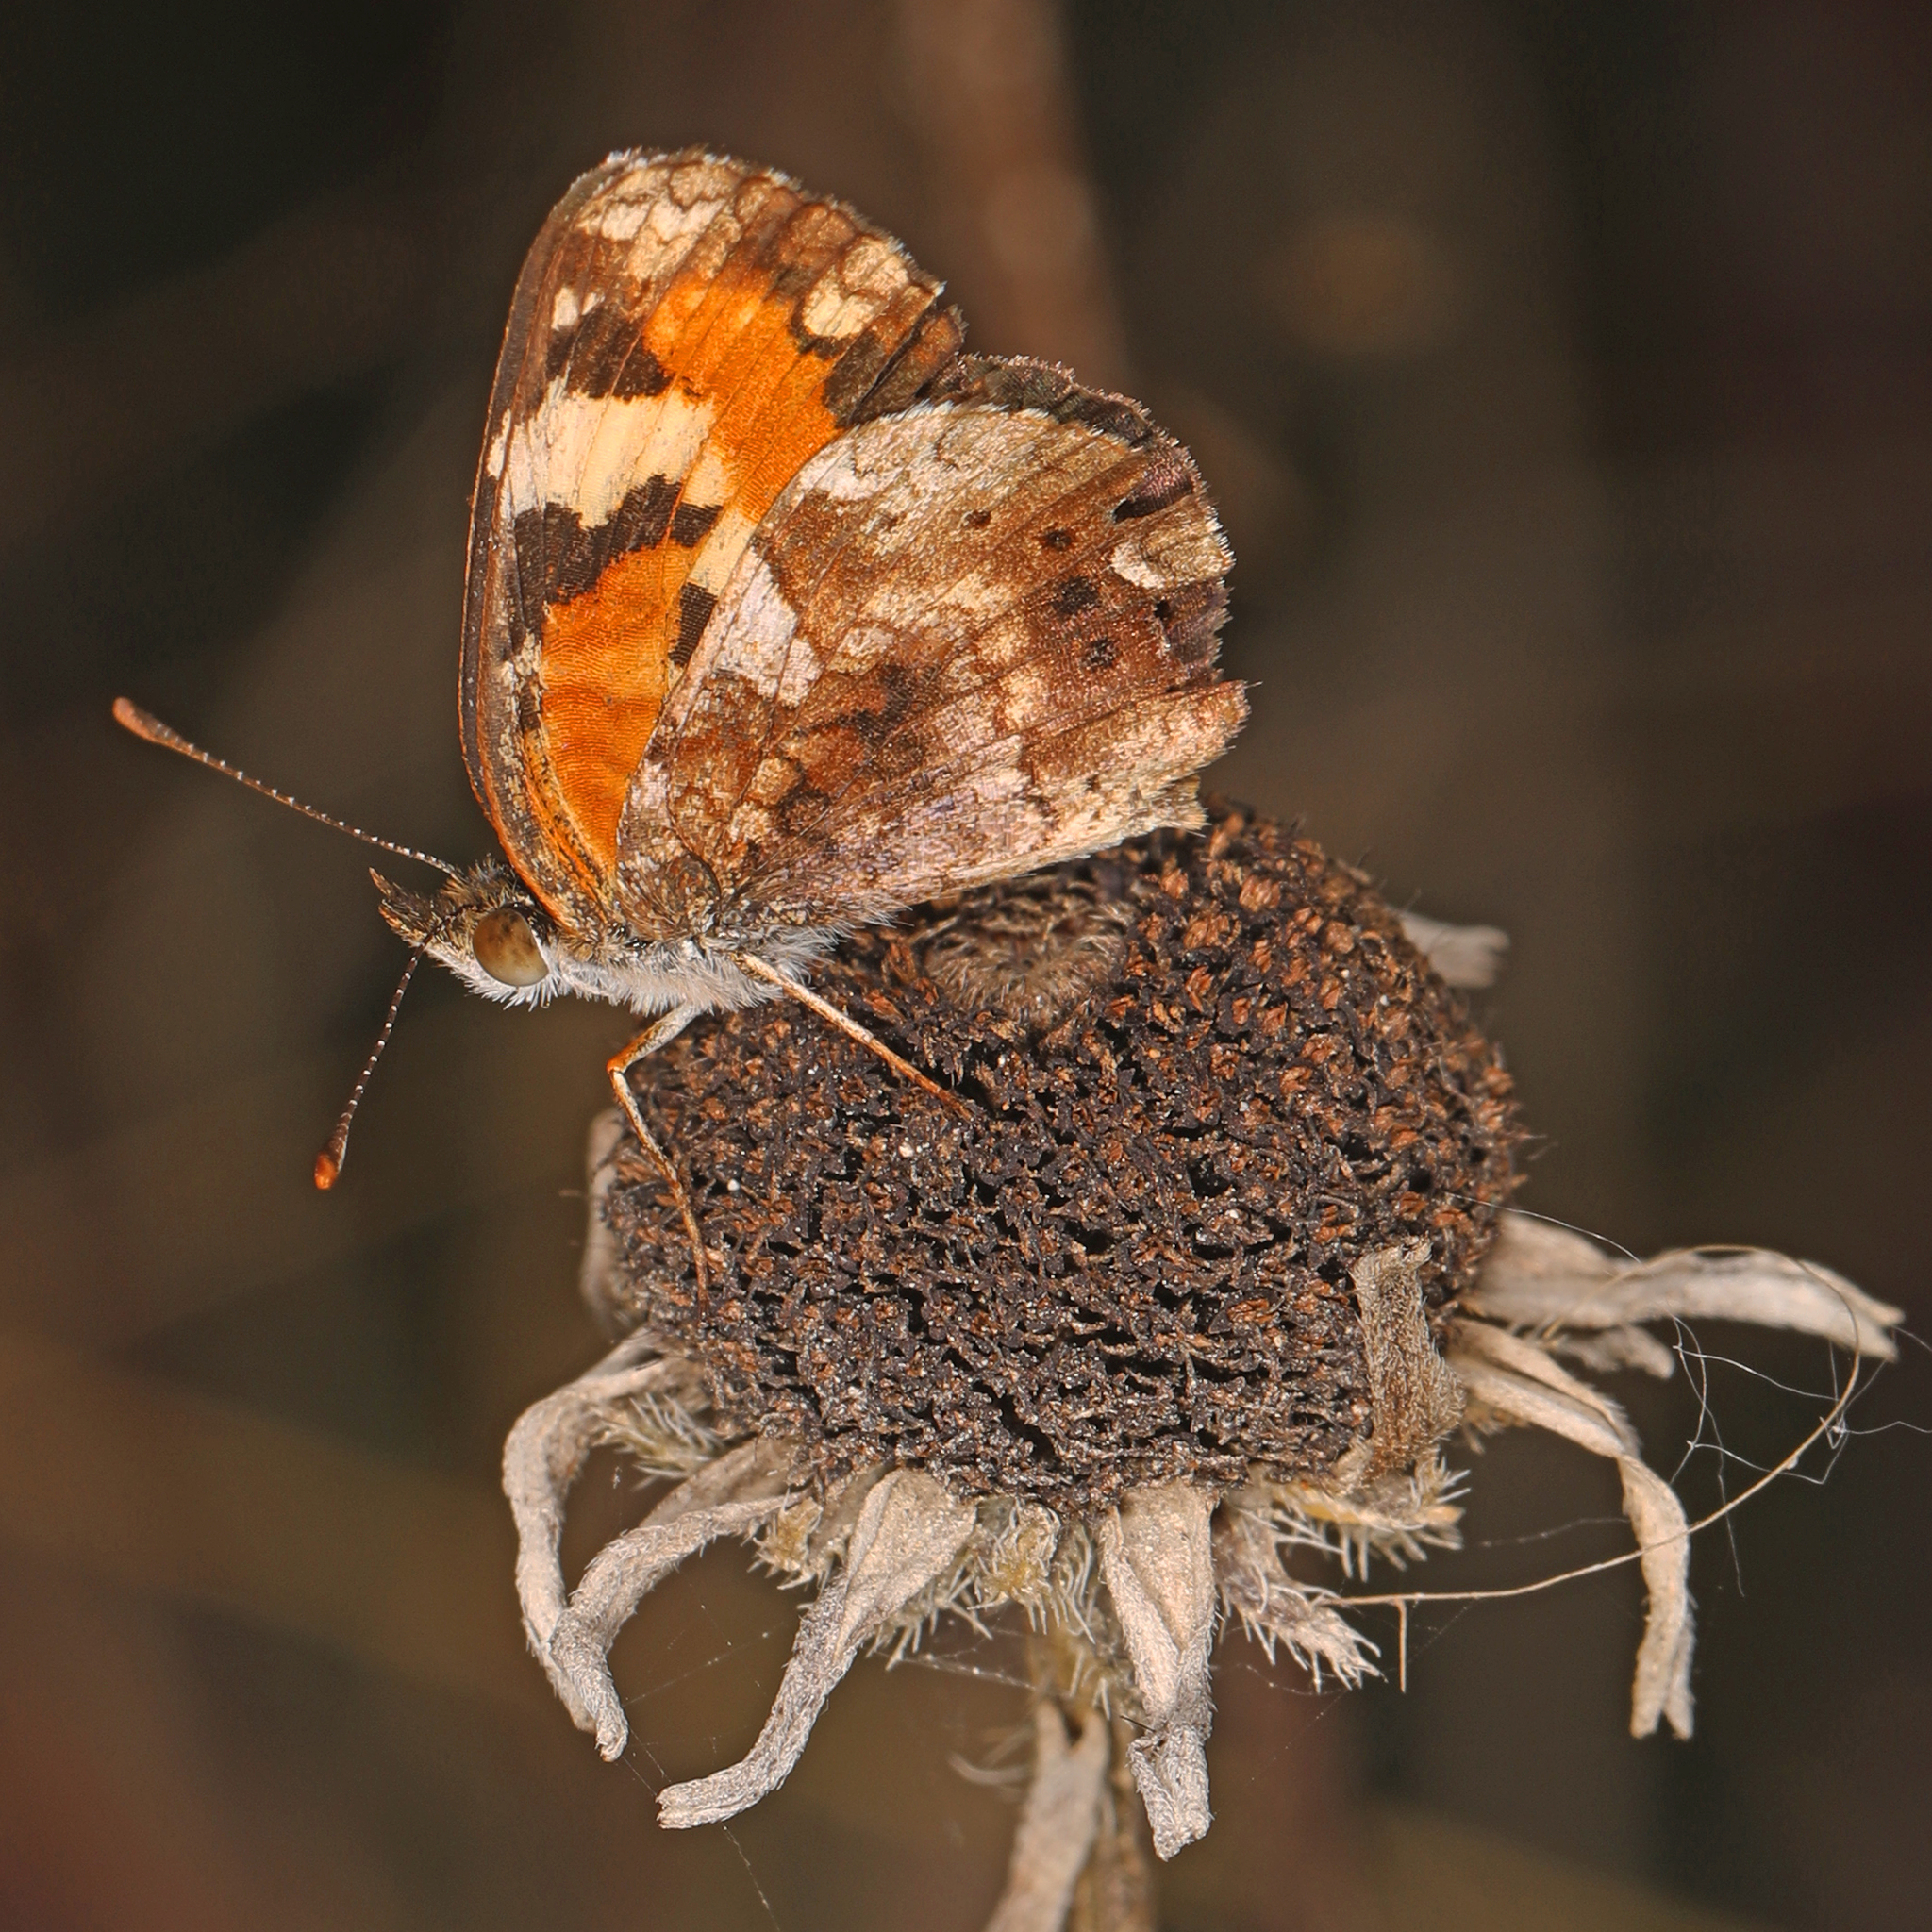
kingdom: Animalia
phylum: Arthropoda
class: Insecta
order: Lepidoptera
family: Nymphalidae
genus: Phyciodes
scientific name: Phyciodes phaon
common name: Phaon crescent
